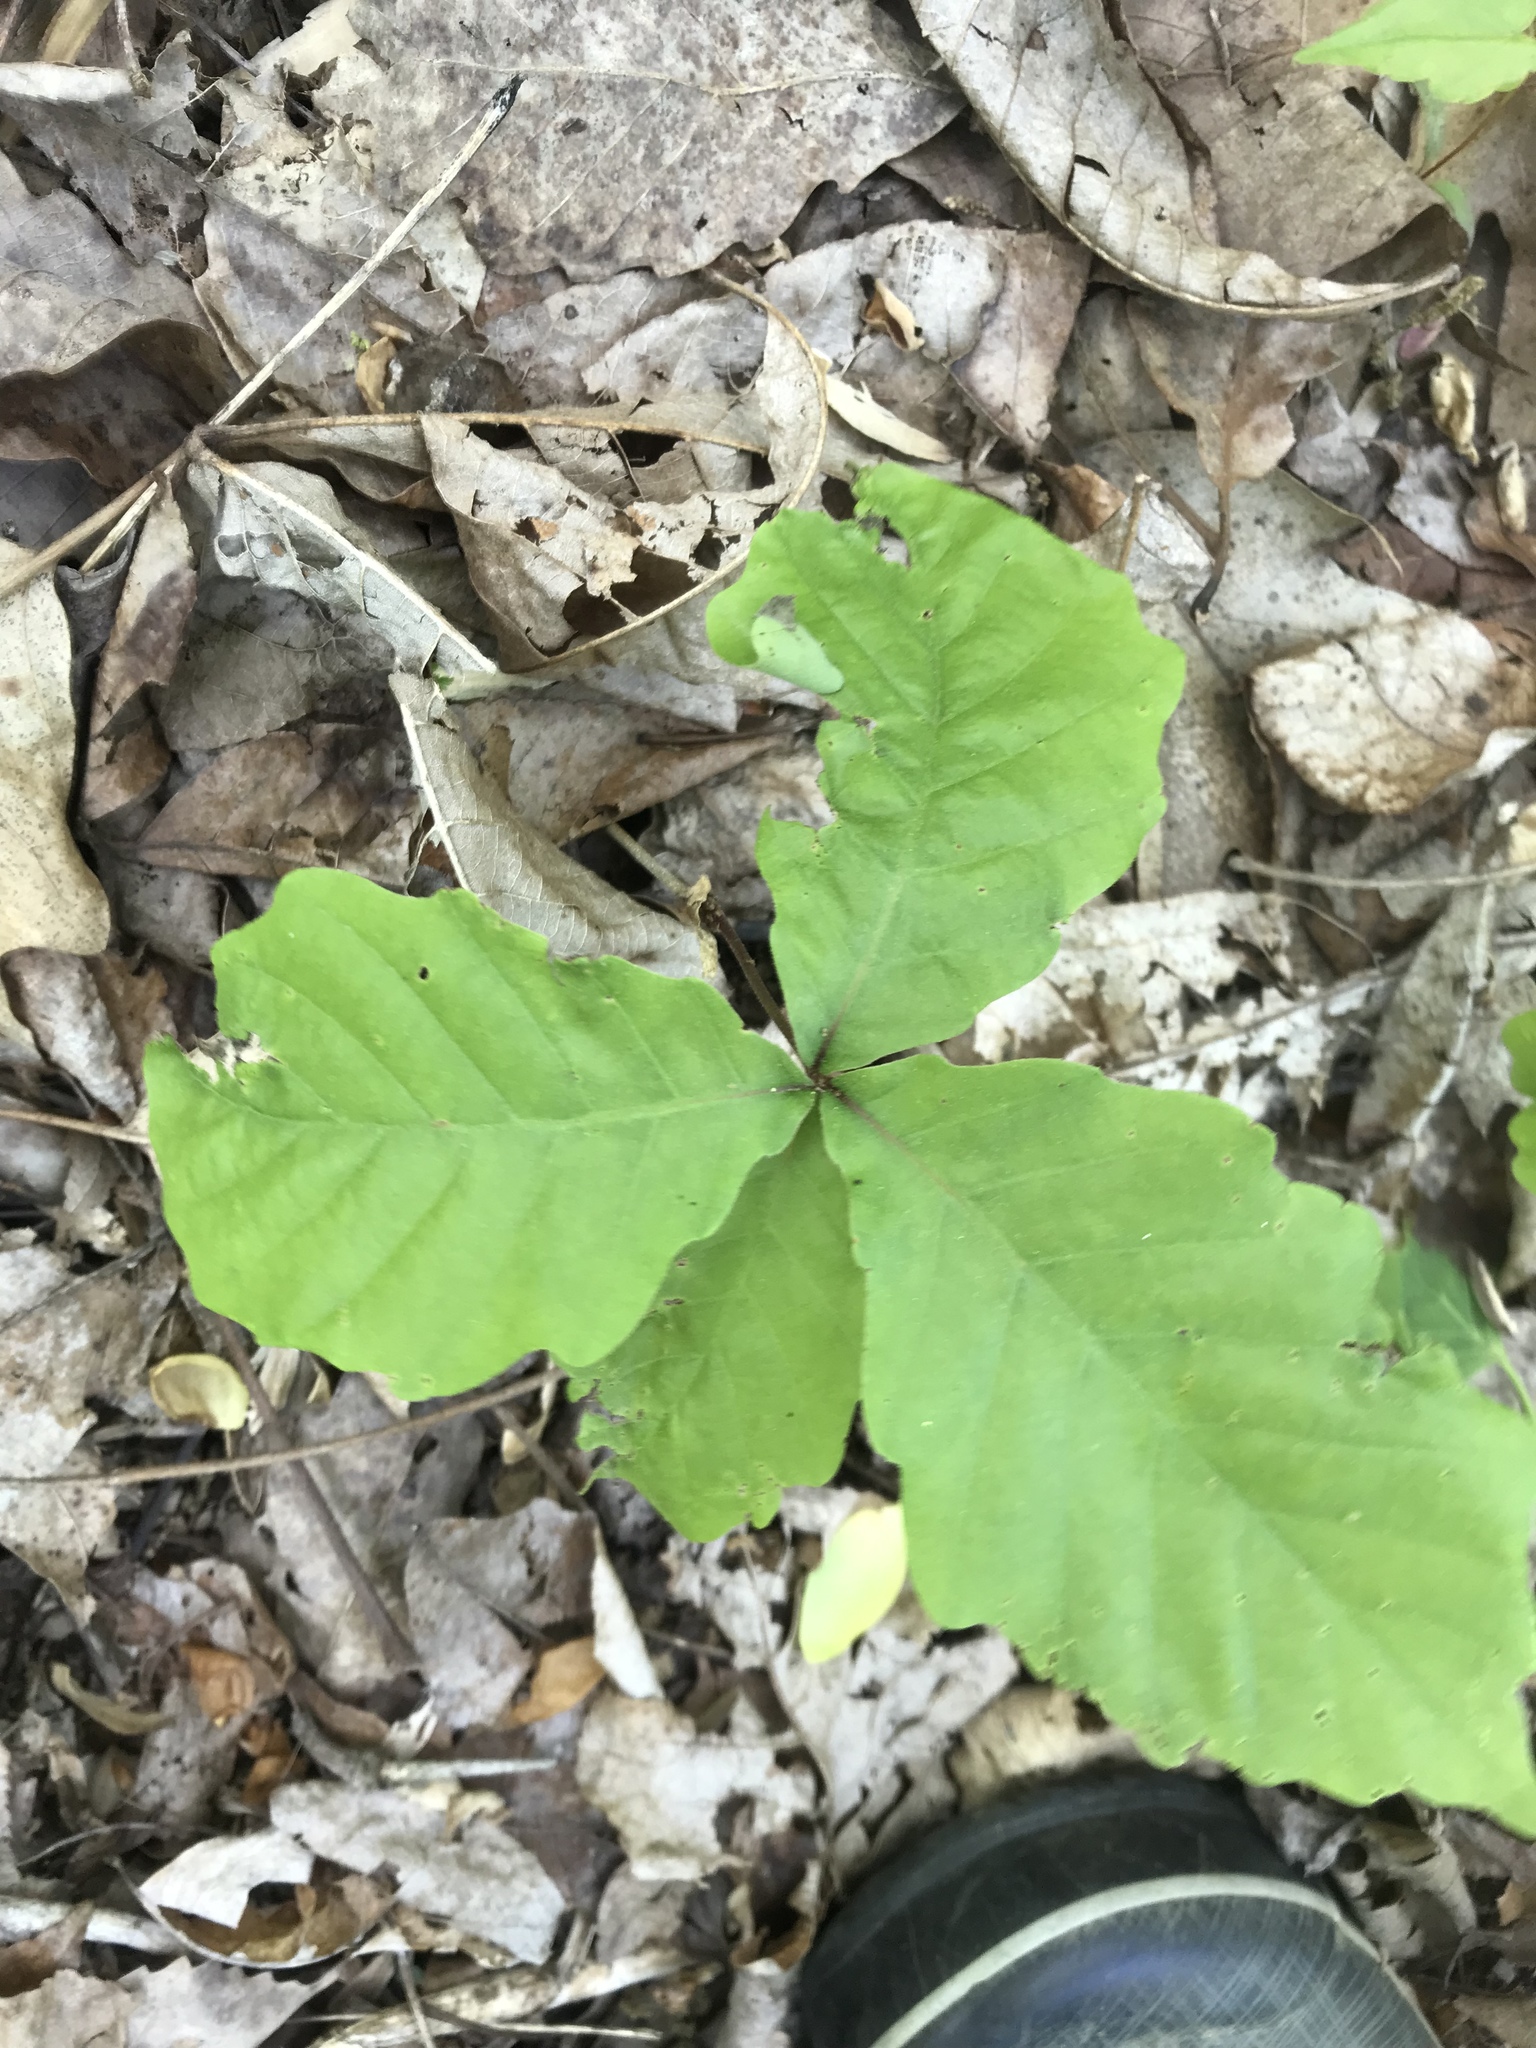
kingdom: Plantae
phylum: Tracheophyta
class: Magnoliopsida
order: Fagales
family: Fagaceae
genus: Quercus
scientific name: Quercus montana
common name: Chestnut oak
